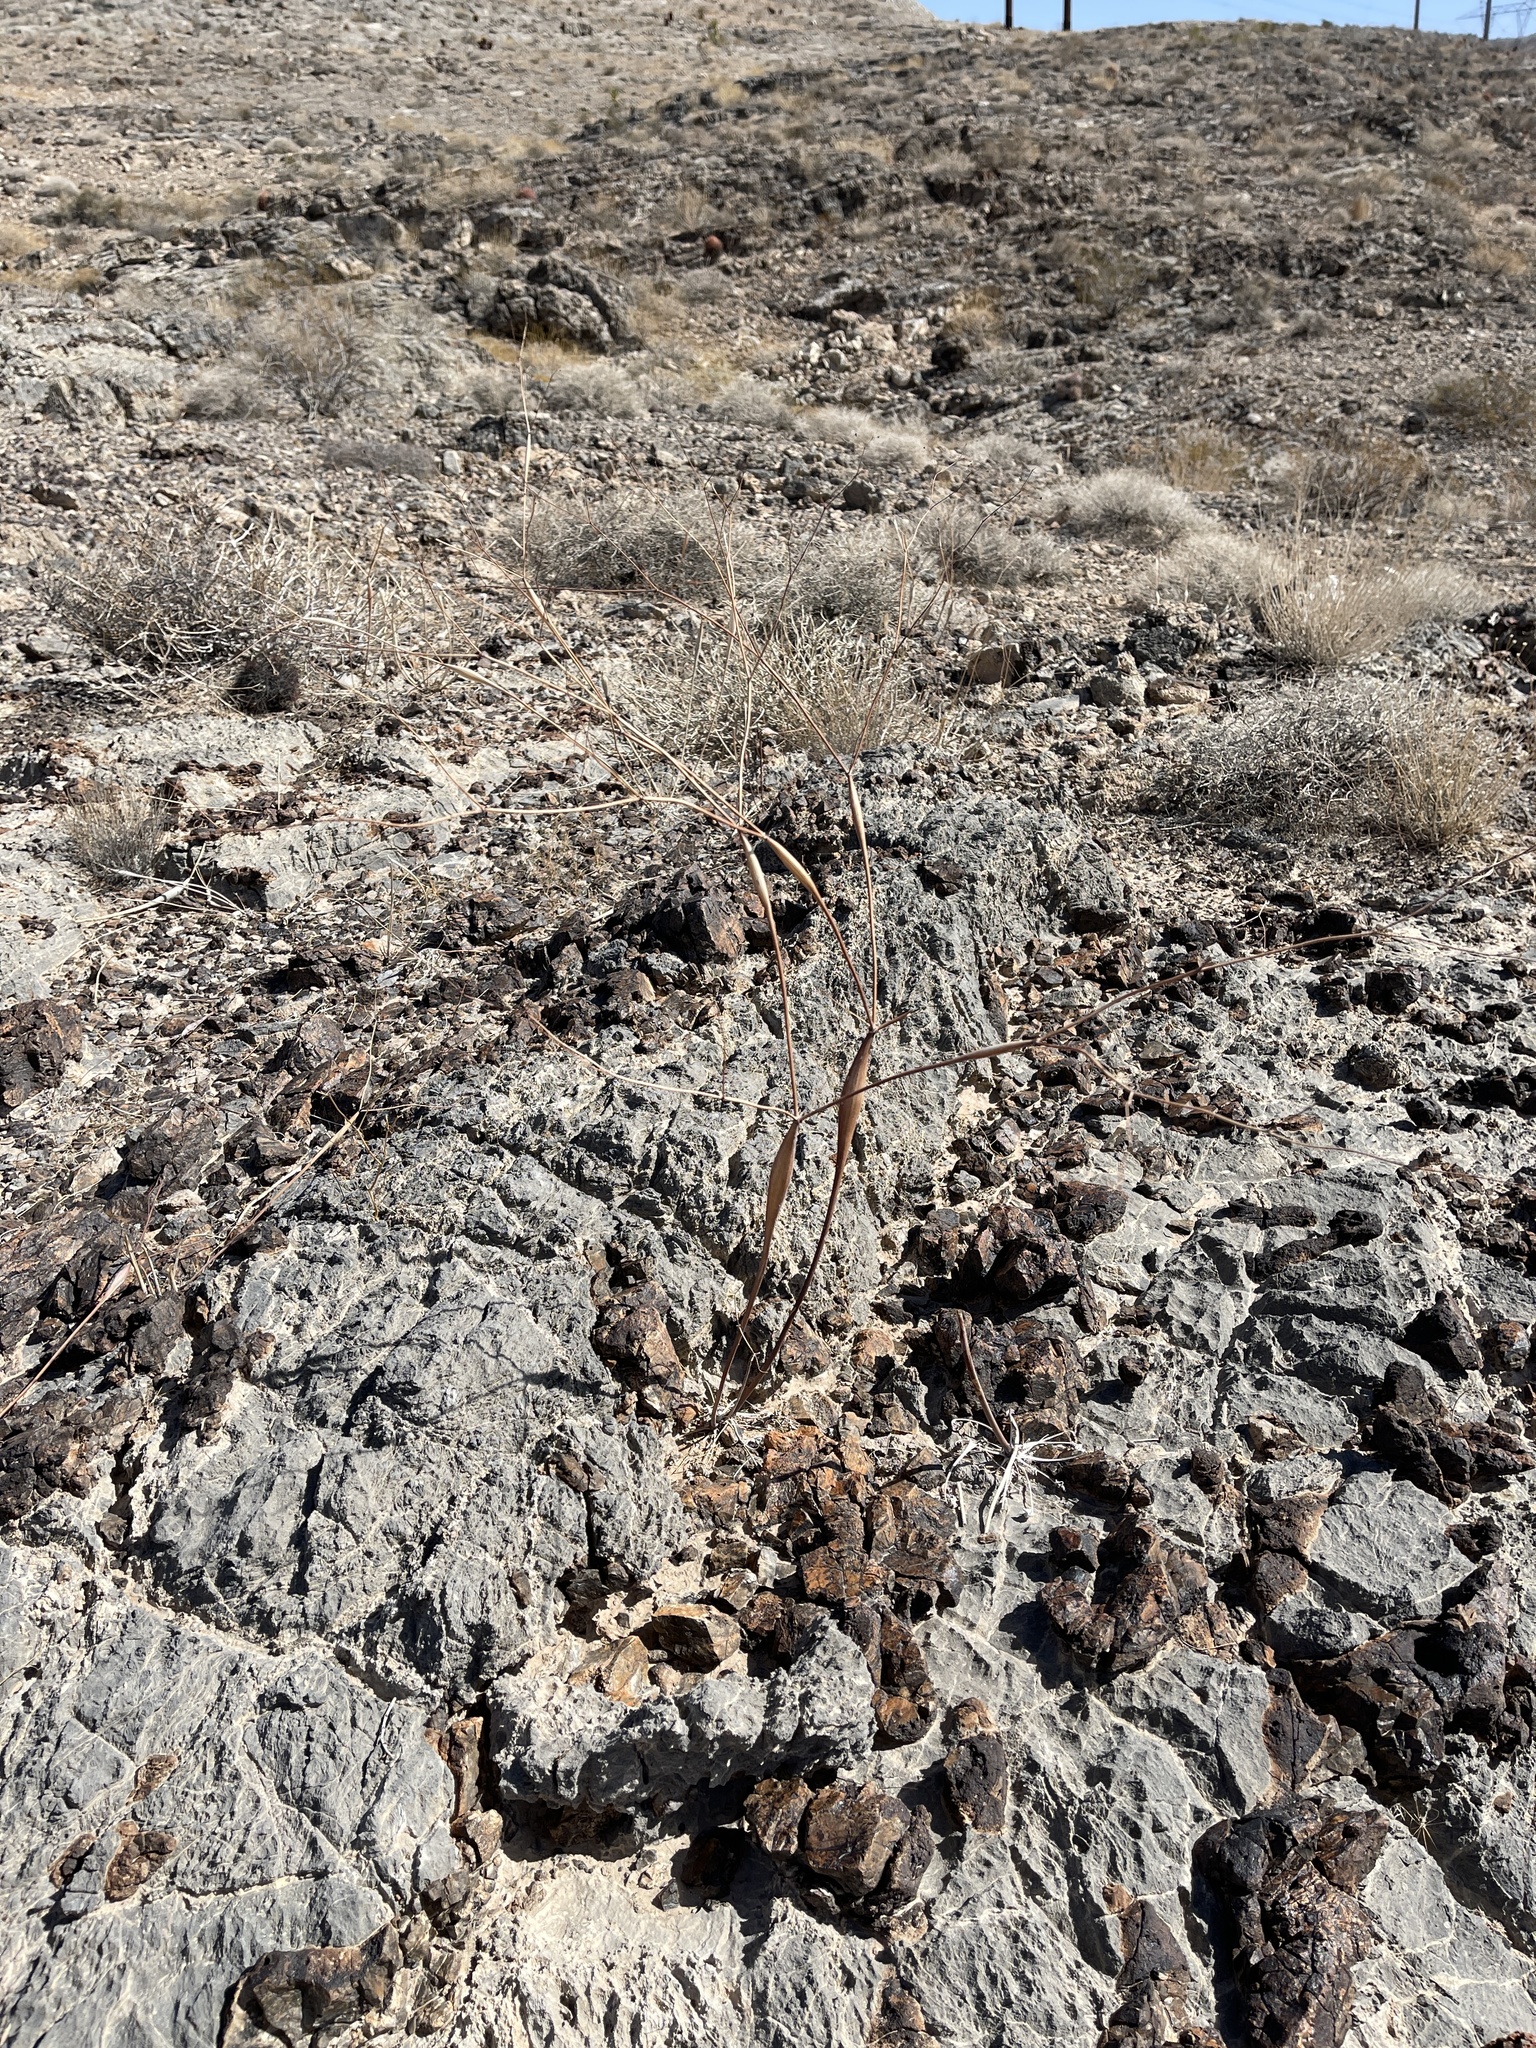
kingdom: Plantae
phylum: Tracheophyta
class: Magnoliopsida
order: Caryophyllales
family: Polygonaceae
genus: Eriogonum
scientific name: Eriogonum inflatum
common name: Desert trumpet
